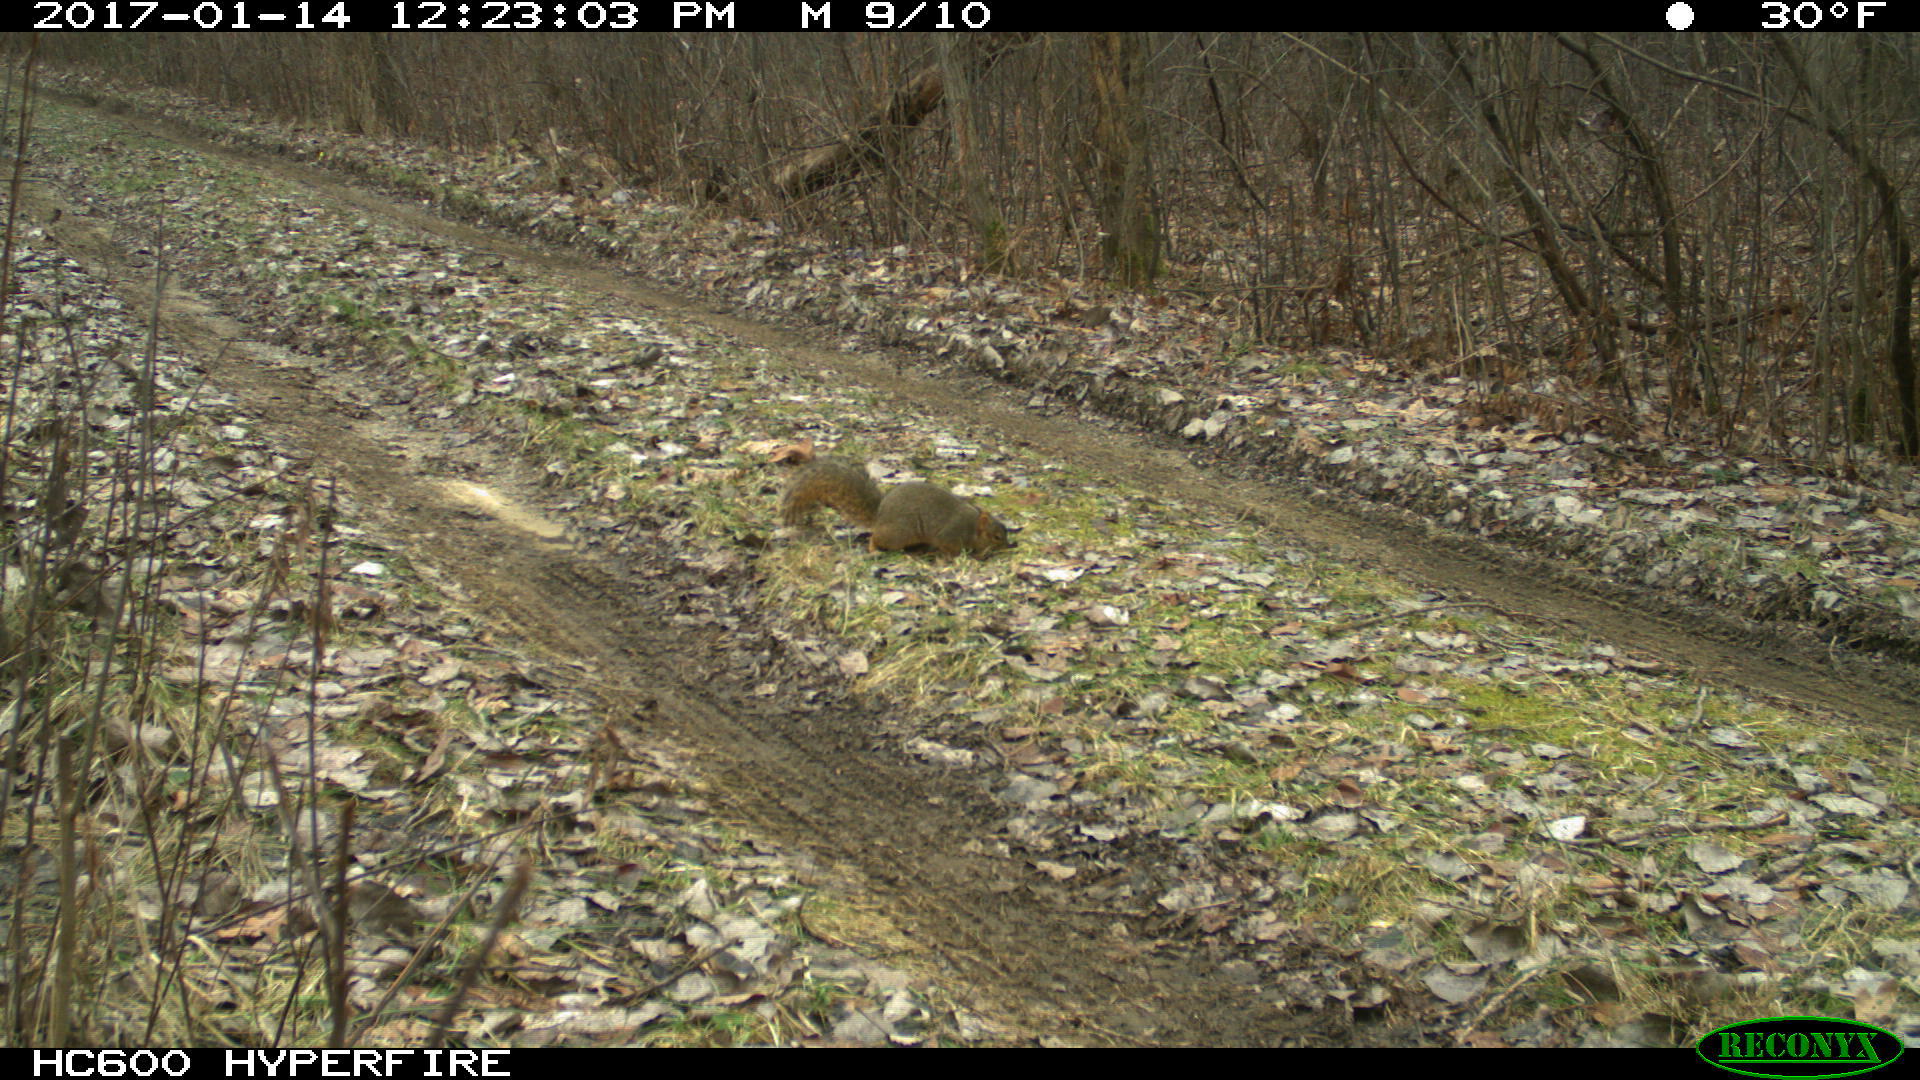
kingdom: Animalia
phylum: Chordata
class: Mammalia
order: Rodentia
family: Sciuridae
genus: Sciurus
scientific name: Sciurus niger
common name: Fox squirrel
